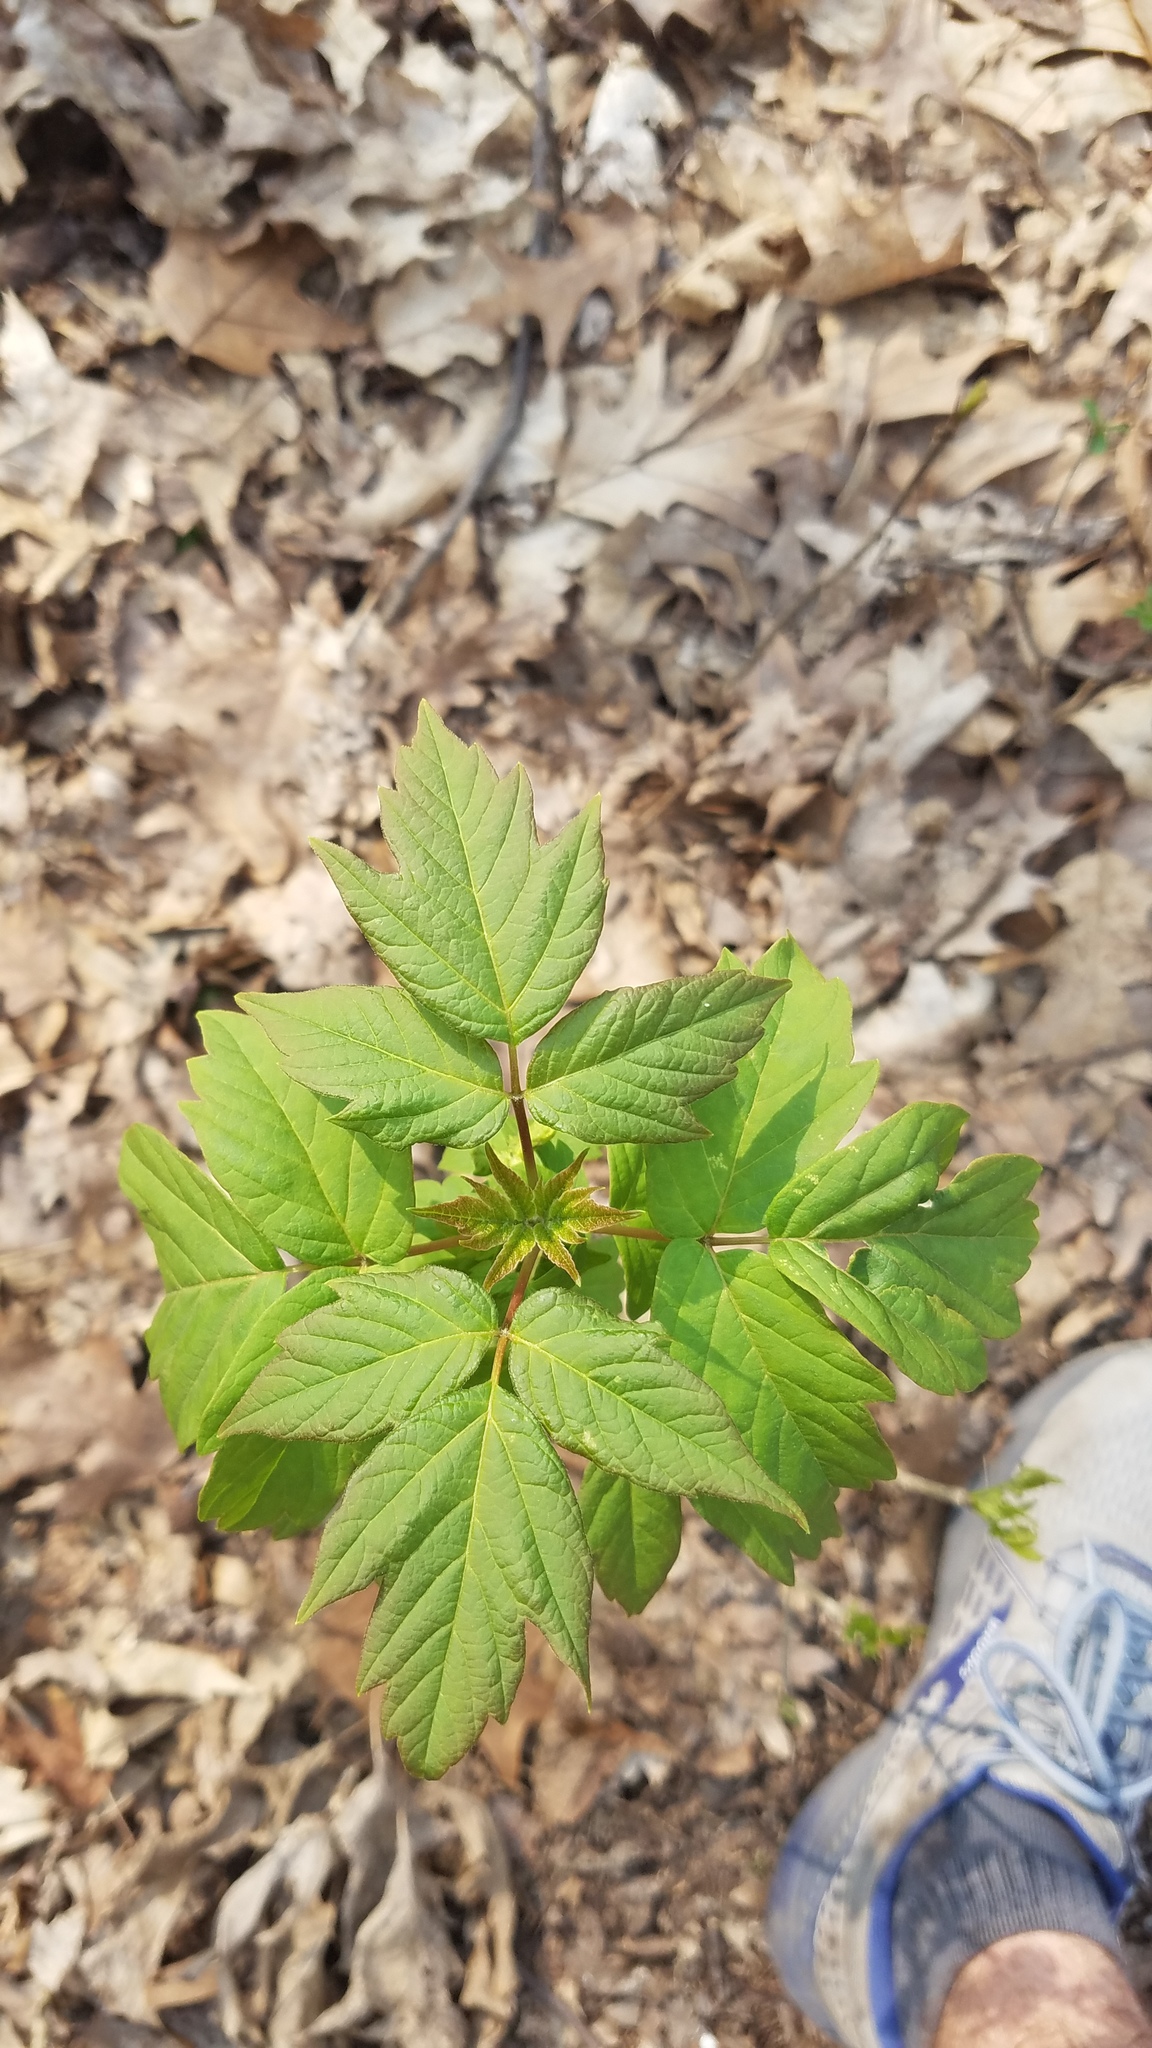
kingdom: Plantae
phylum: Tracheophyta
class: Magnoliopsida
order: Sapindales
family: Sapindaceae
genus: Acer
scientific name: Acer negundo
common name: Ashleaf maple
